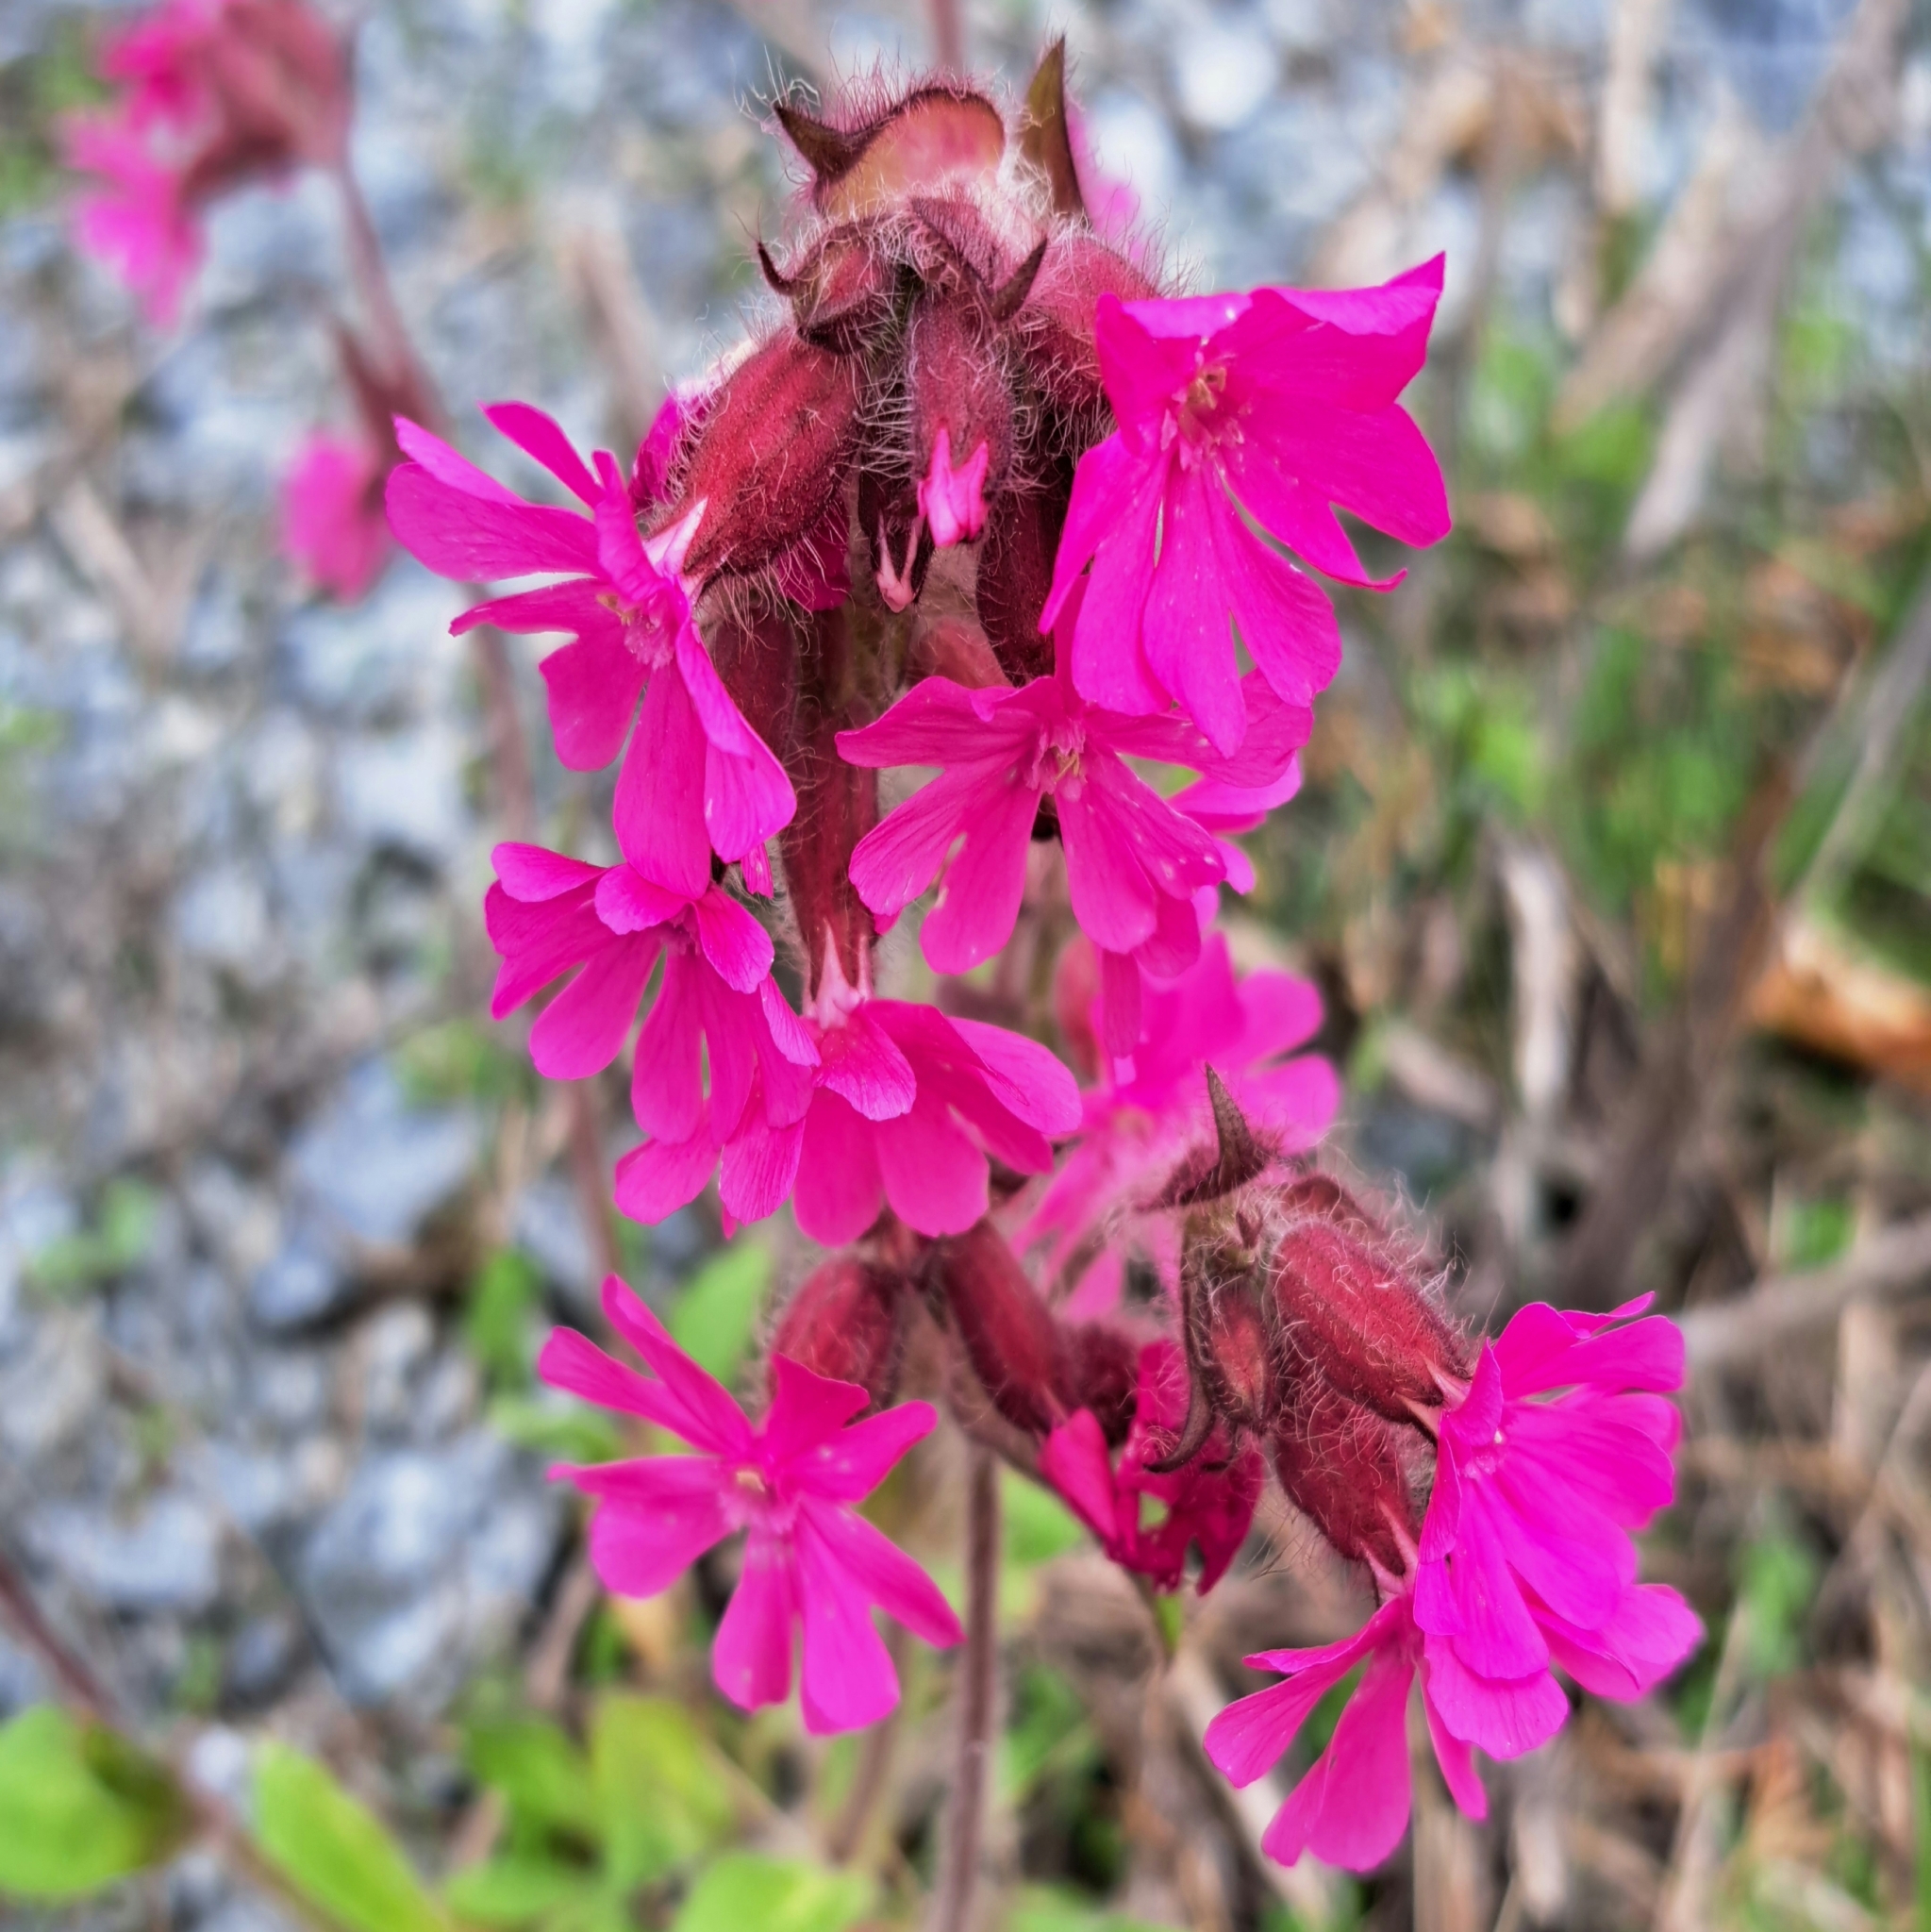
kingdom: Plantae
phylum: Tracheophyta
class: Magnoliopsida
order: Caryophyllales
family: Caryophyllaceae
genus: Silene
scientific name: Silene dioica
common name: Red campion
